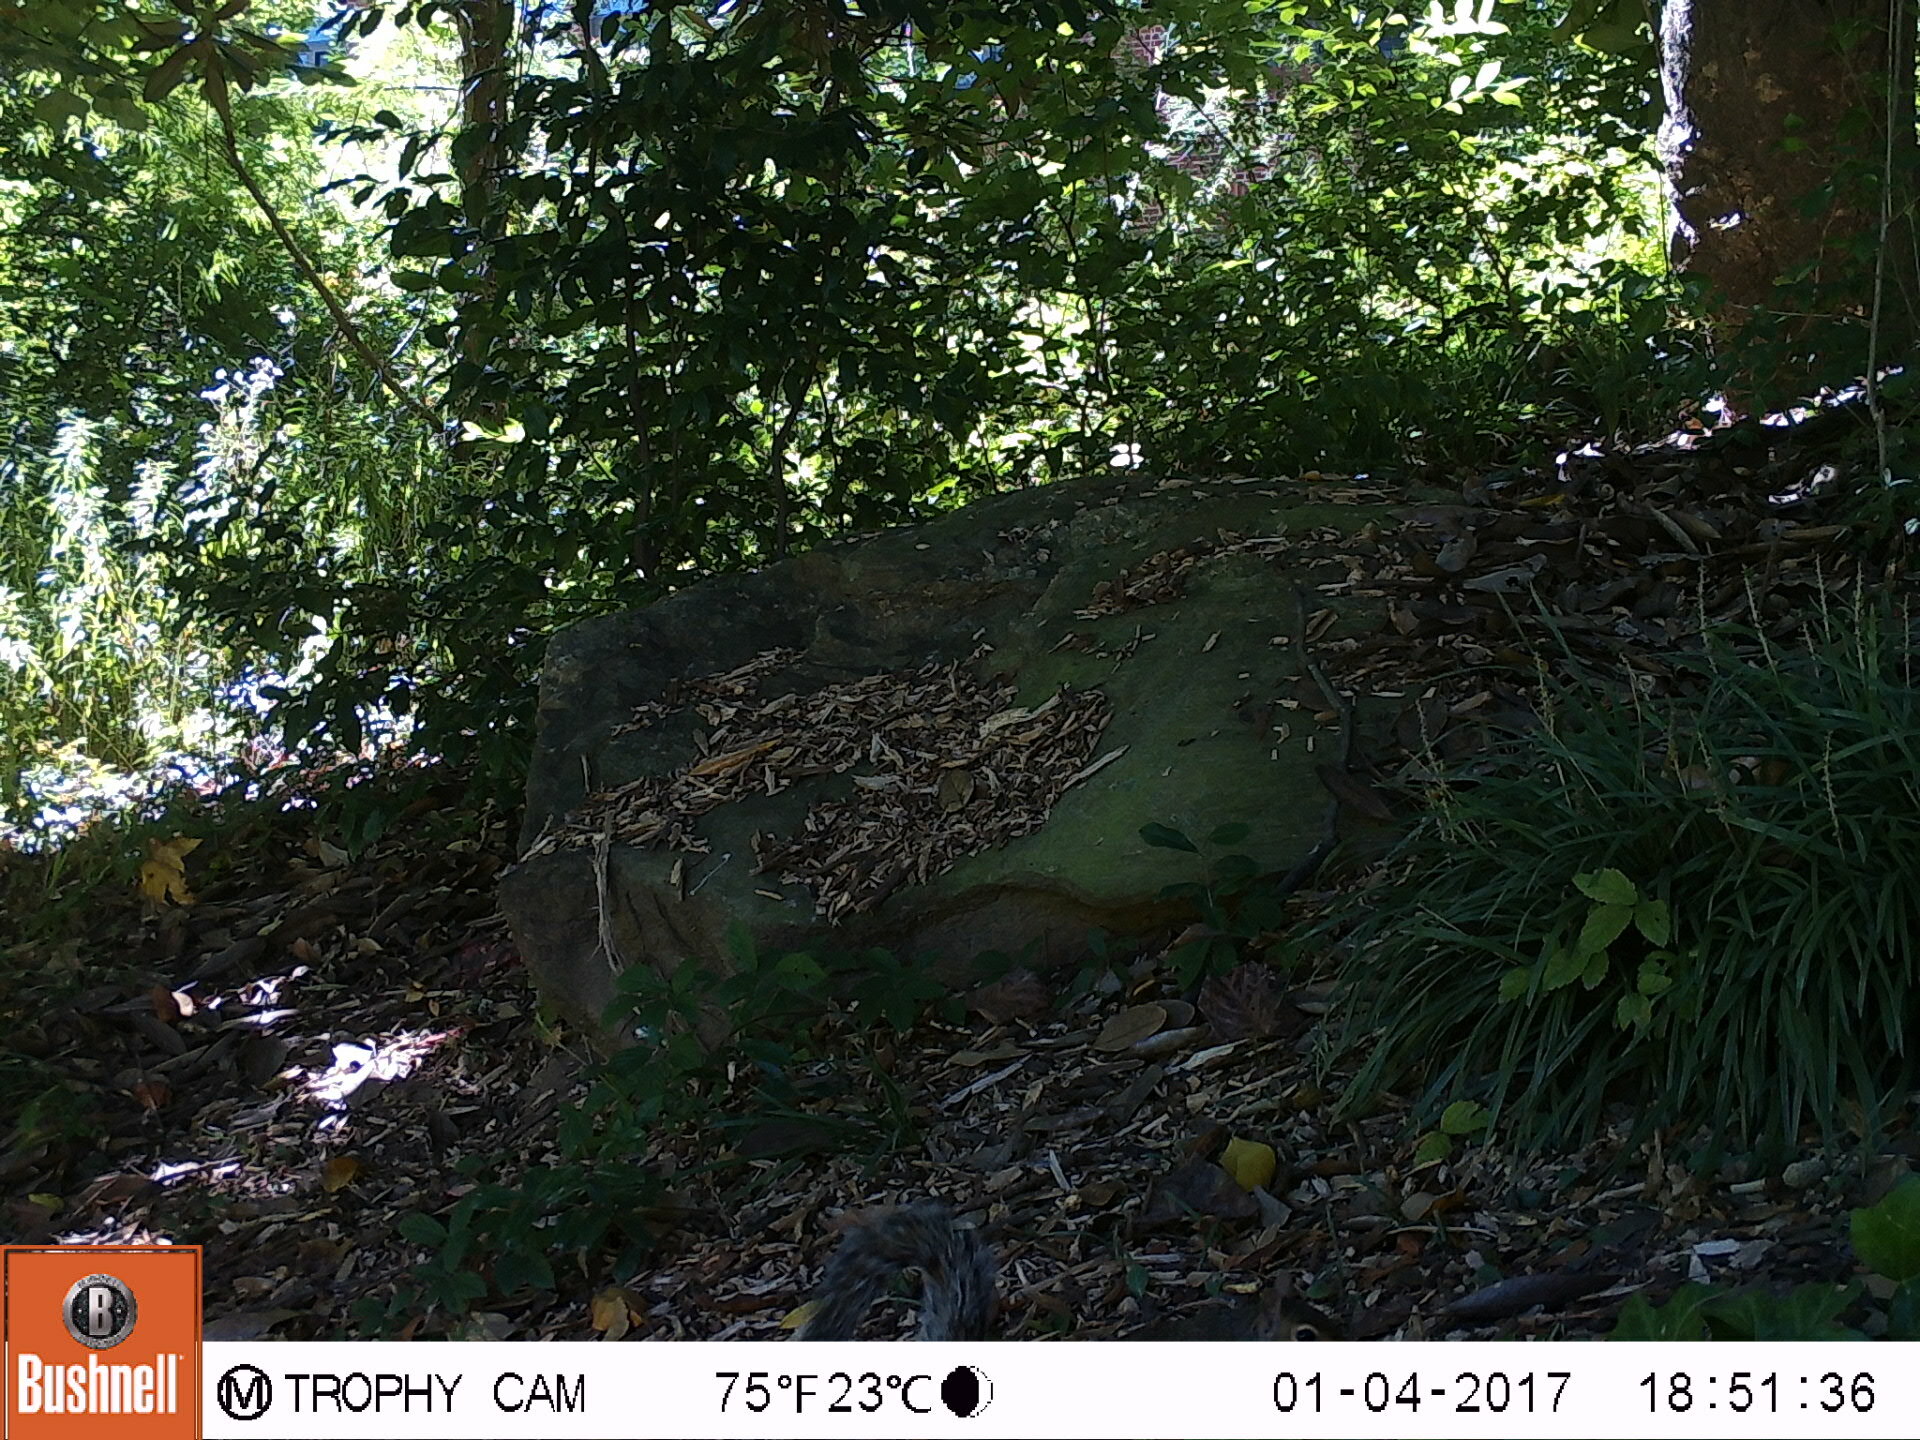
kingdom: Animalia
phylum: Chordata
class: Mammalia
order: Rodentia
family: Sciuridae
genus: Sciurus
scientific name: Sciurus carolinensis
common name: Eastern gray squirrel
